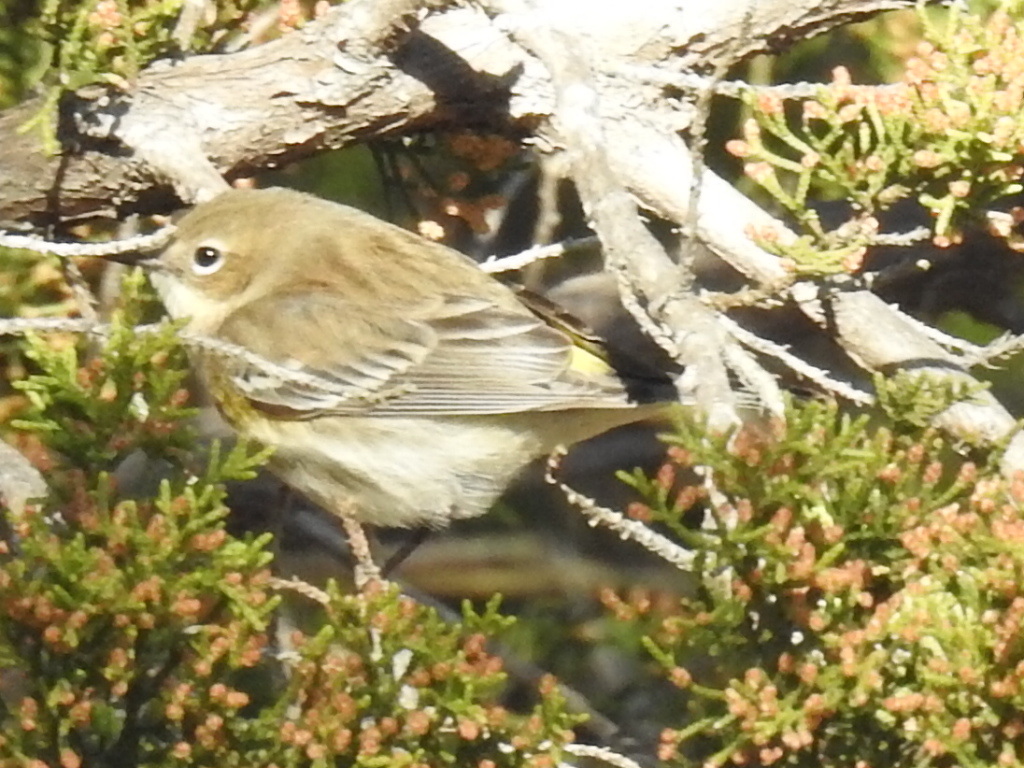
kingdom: Animalia
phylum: Chordata
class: Aves
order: Passeriformes
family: Parulidae
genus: Setophaga
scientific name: Setophaga coronata
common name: Myrtle warbler
